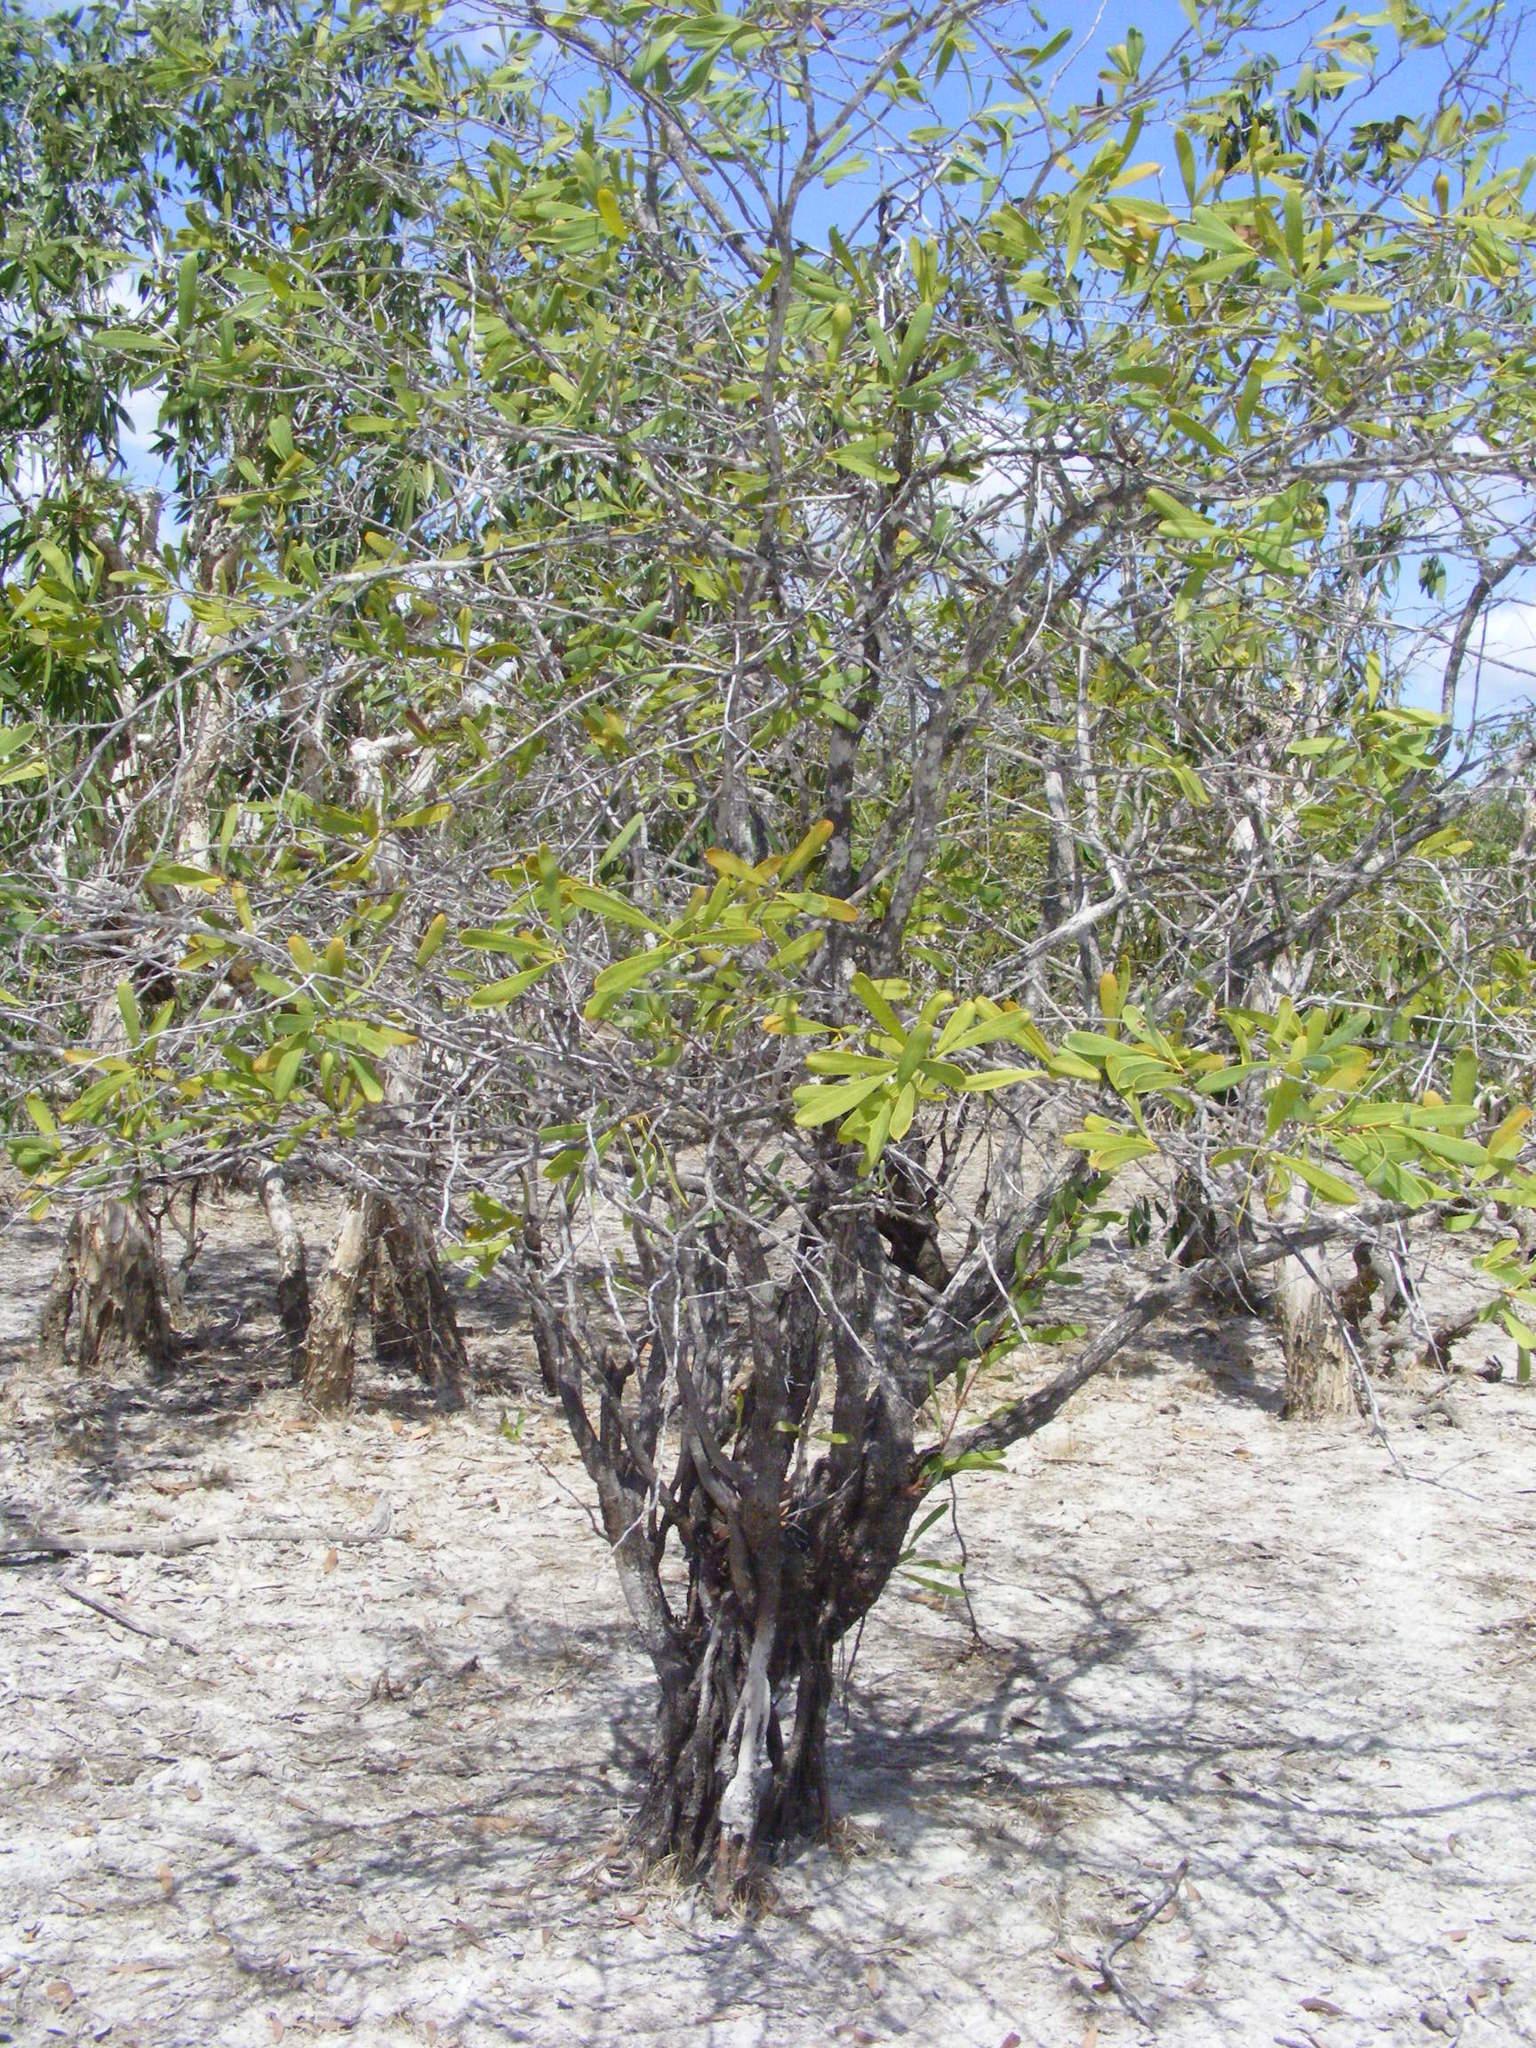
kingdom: Plantae
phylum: Tracheophyta
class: Magnoliopsida
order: Proteales
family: Proteaceae
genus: Hakea
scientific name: Hakea pedunculata
